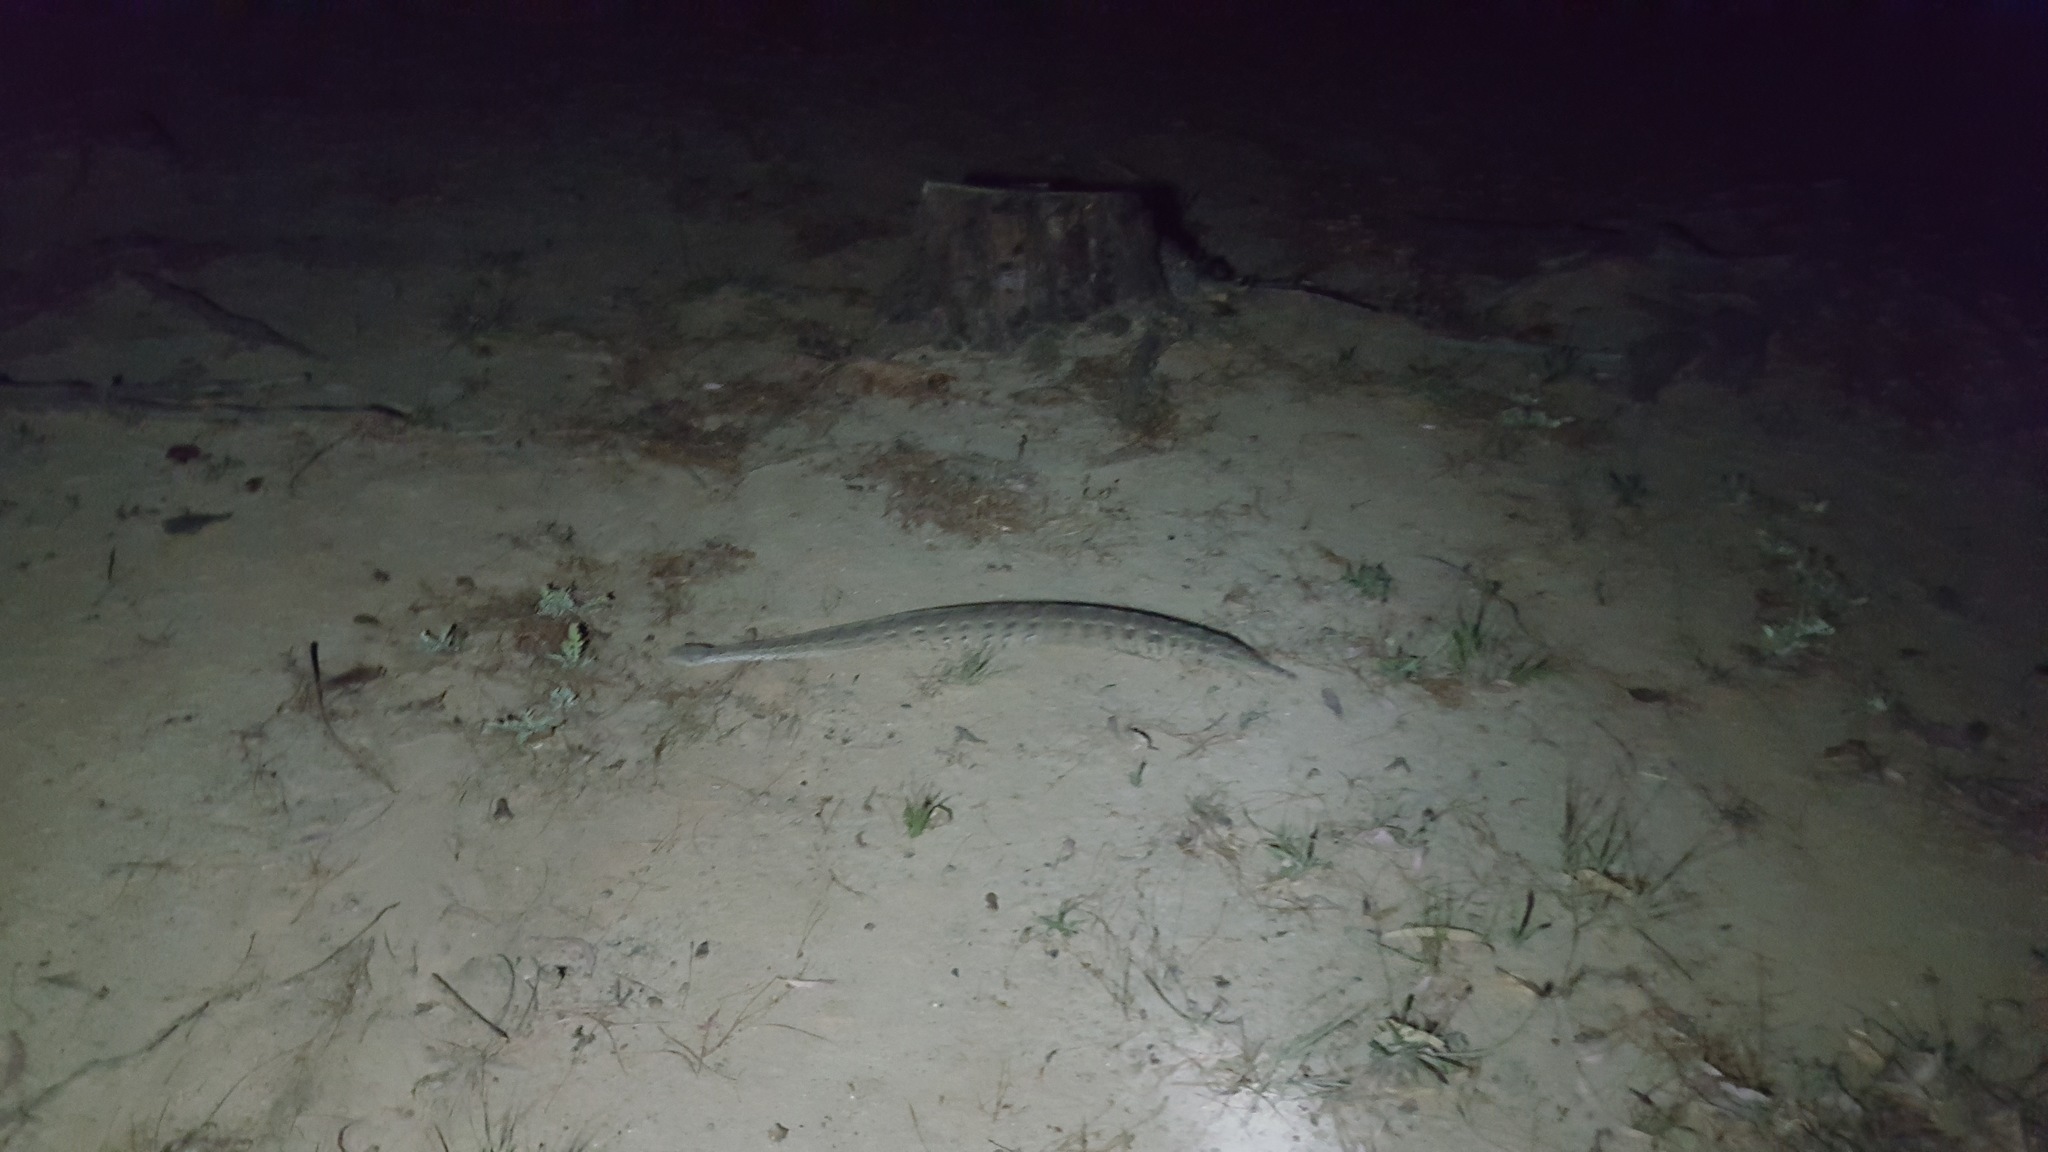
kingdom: Animalia
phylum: Chordata
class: Squamata
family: Viperidae
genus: Bitis
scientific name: Bitis arietans
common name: Puff adder
